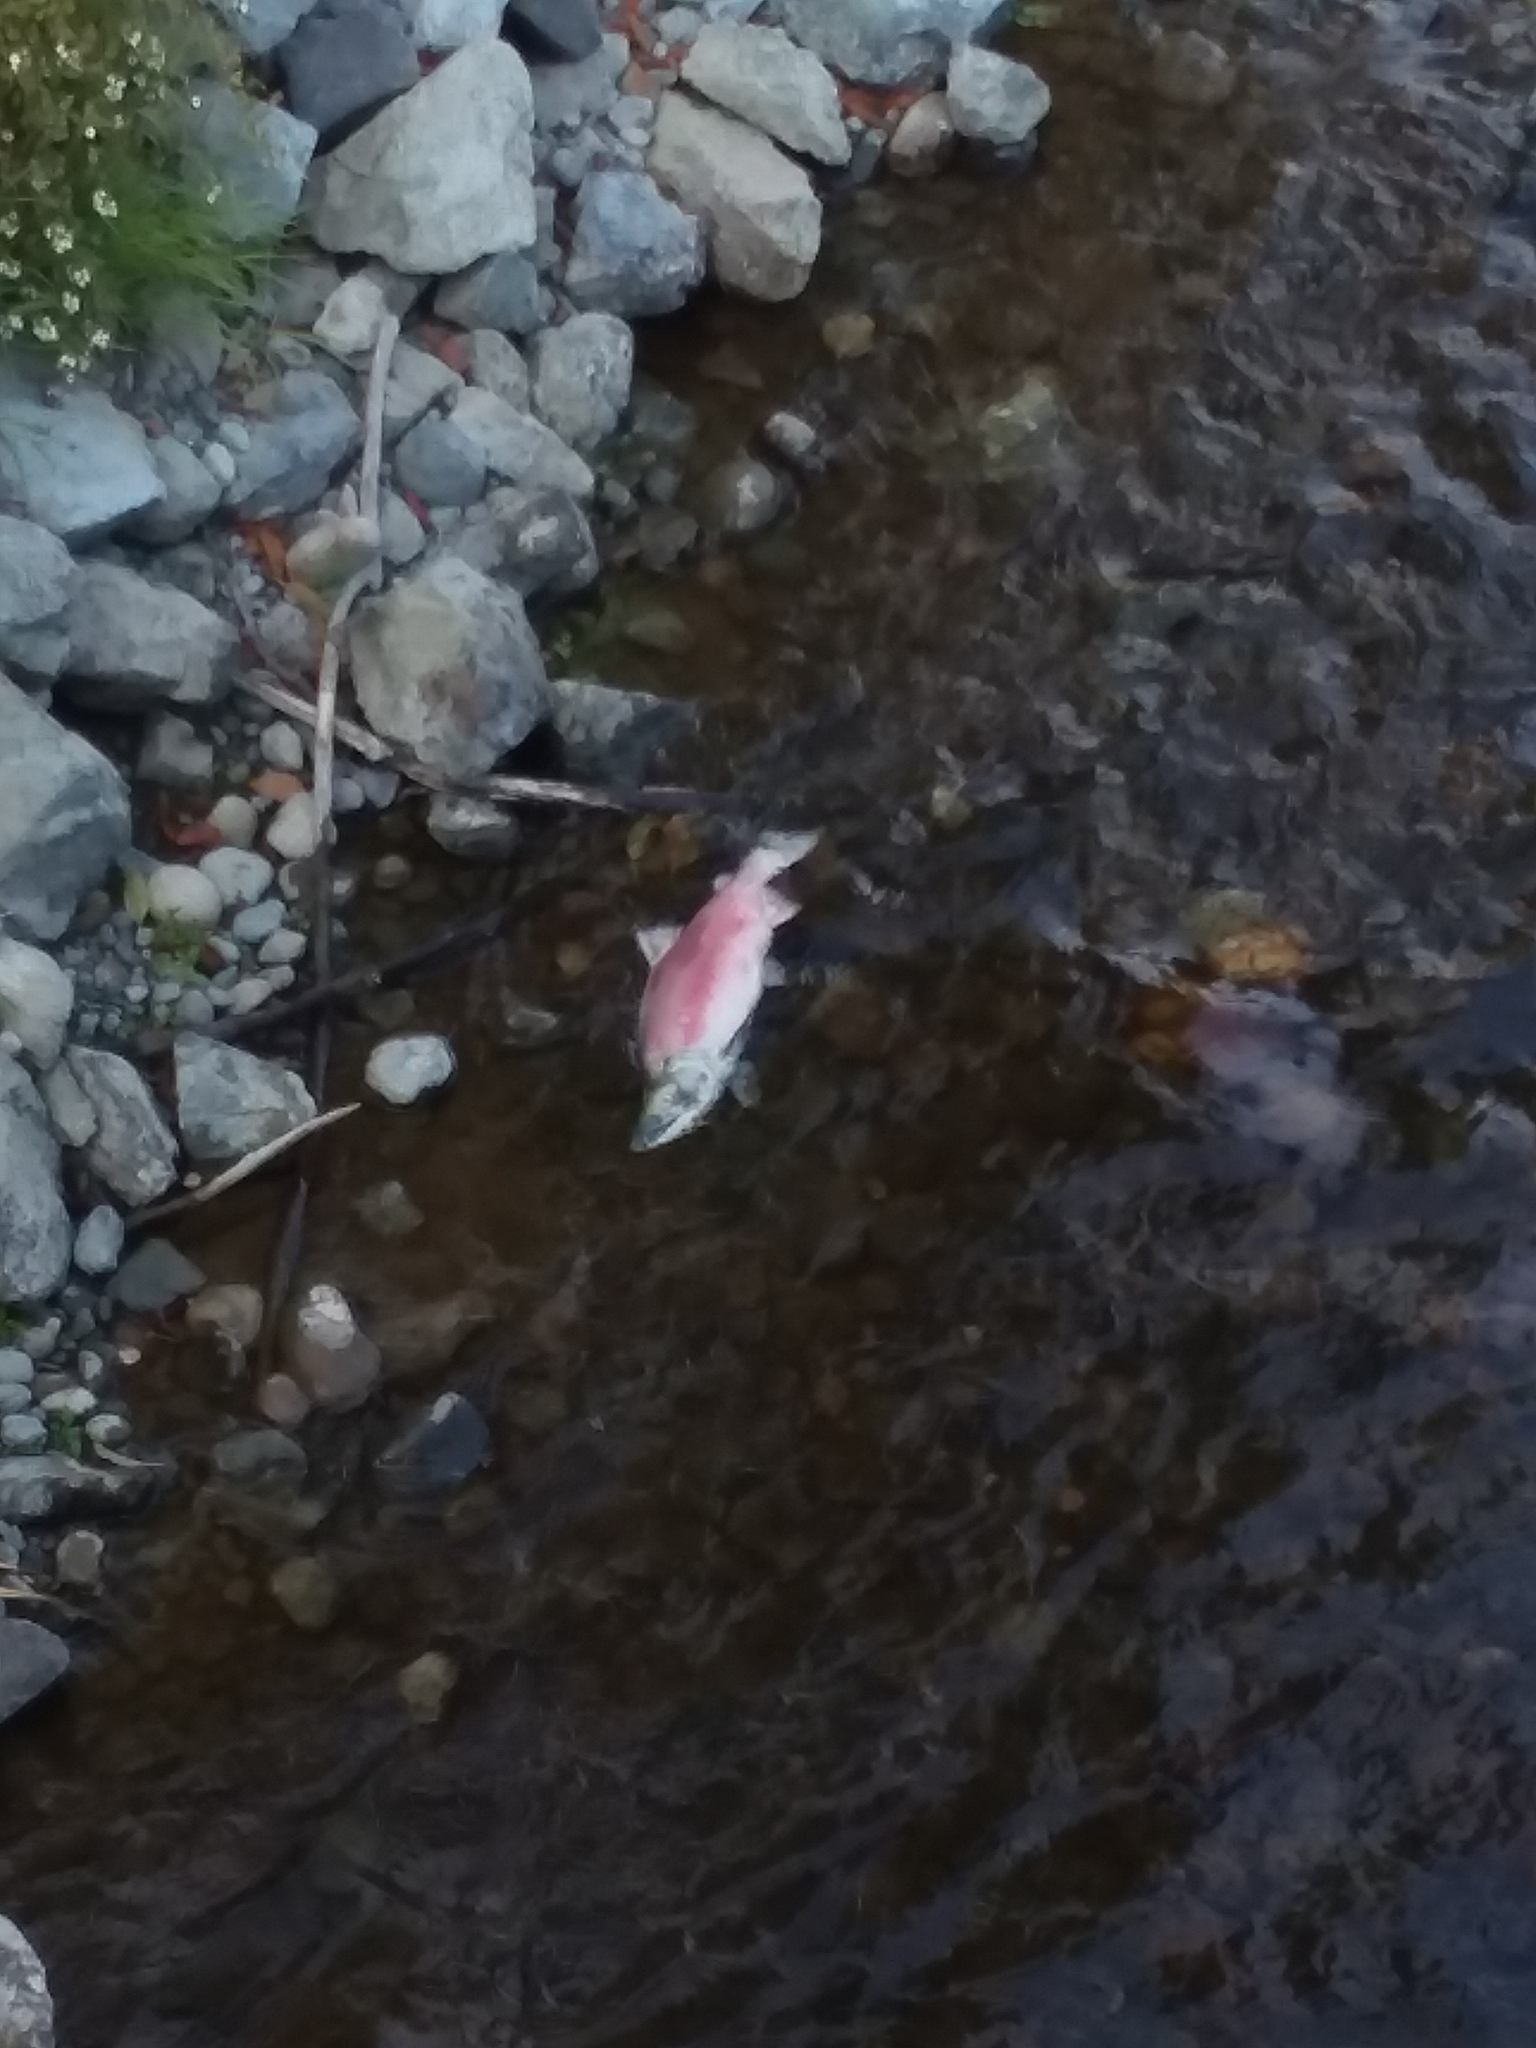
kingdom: Animalia
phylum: Chordata
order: Salmoniformes
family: Salmonidae
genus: Oncorhynchus
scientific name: Oncorhynchus nerka
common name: Sockeye salmon
